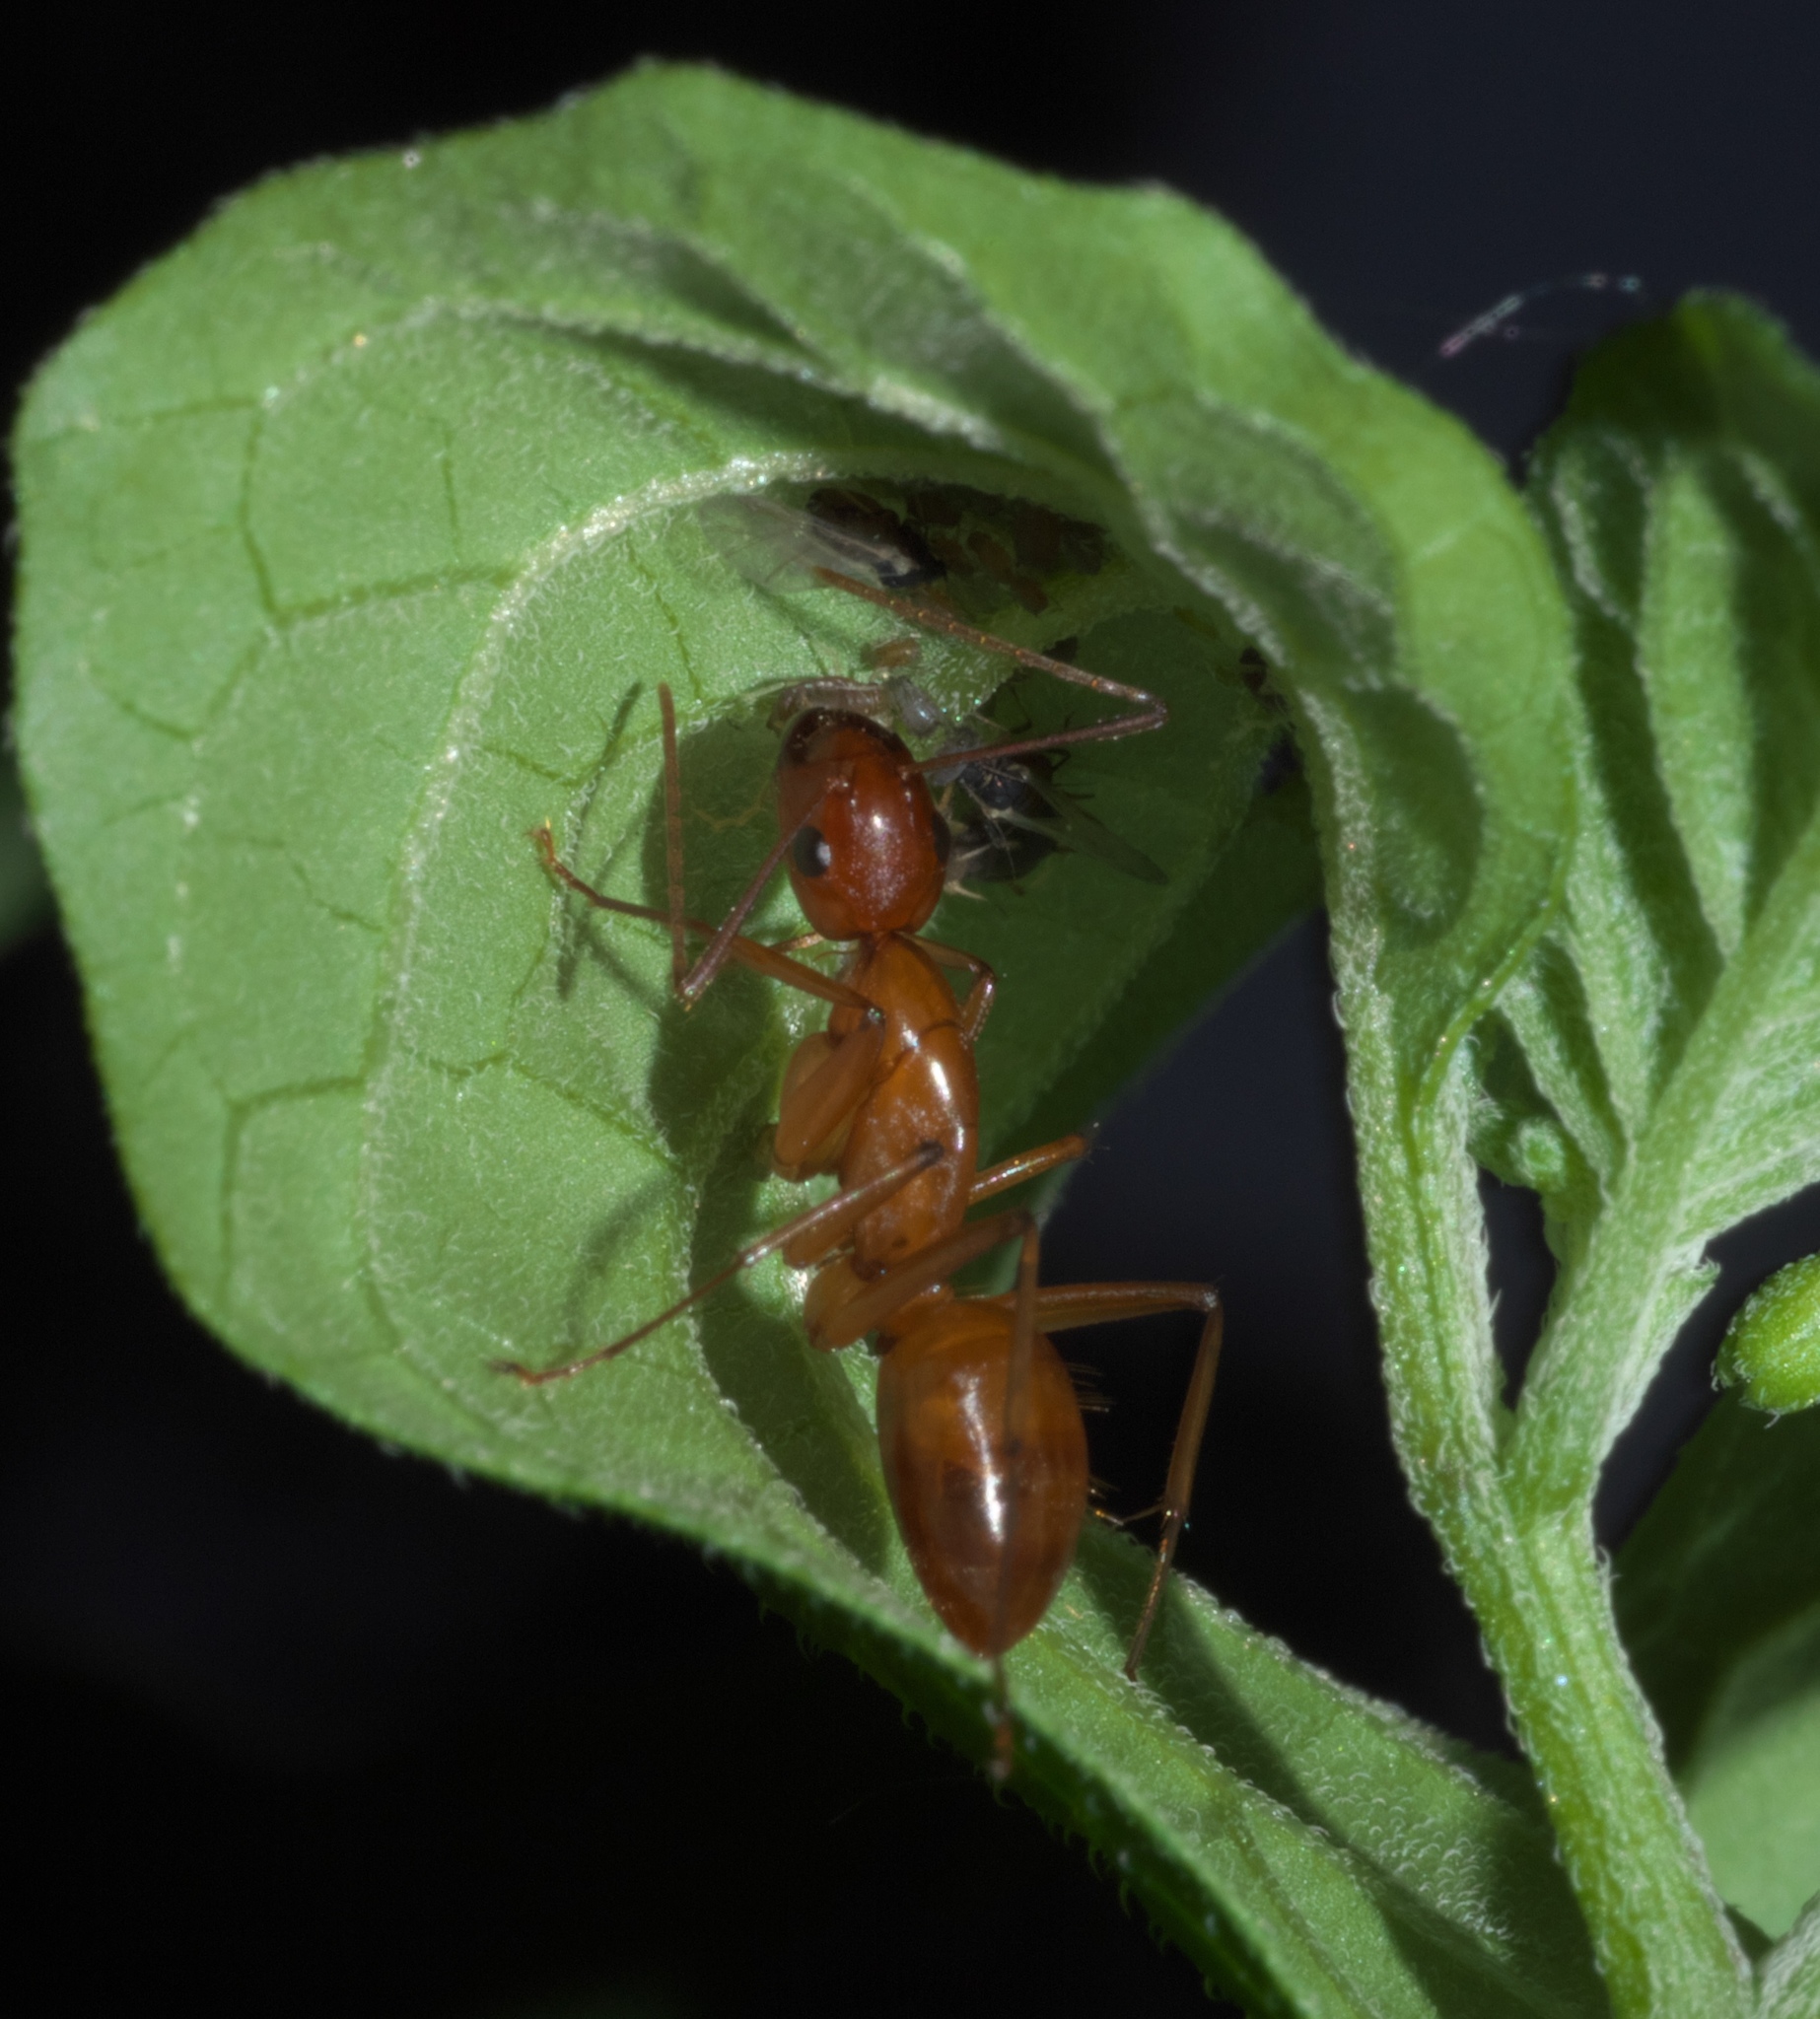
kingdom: Animalia
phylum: Arthropoda
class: Insecta
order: Hymenoptera
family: Formicidae
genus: Camponotus
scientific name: Camponotus castaneus
